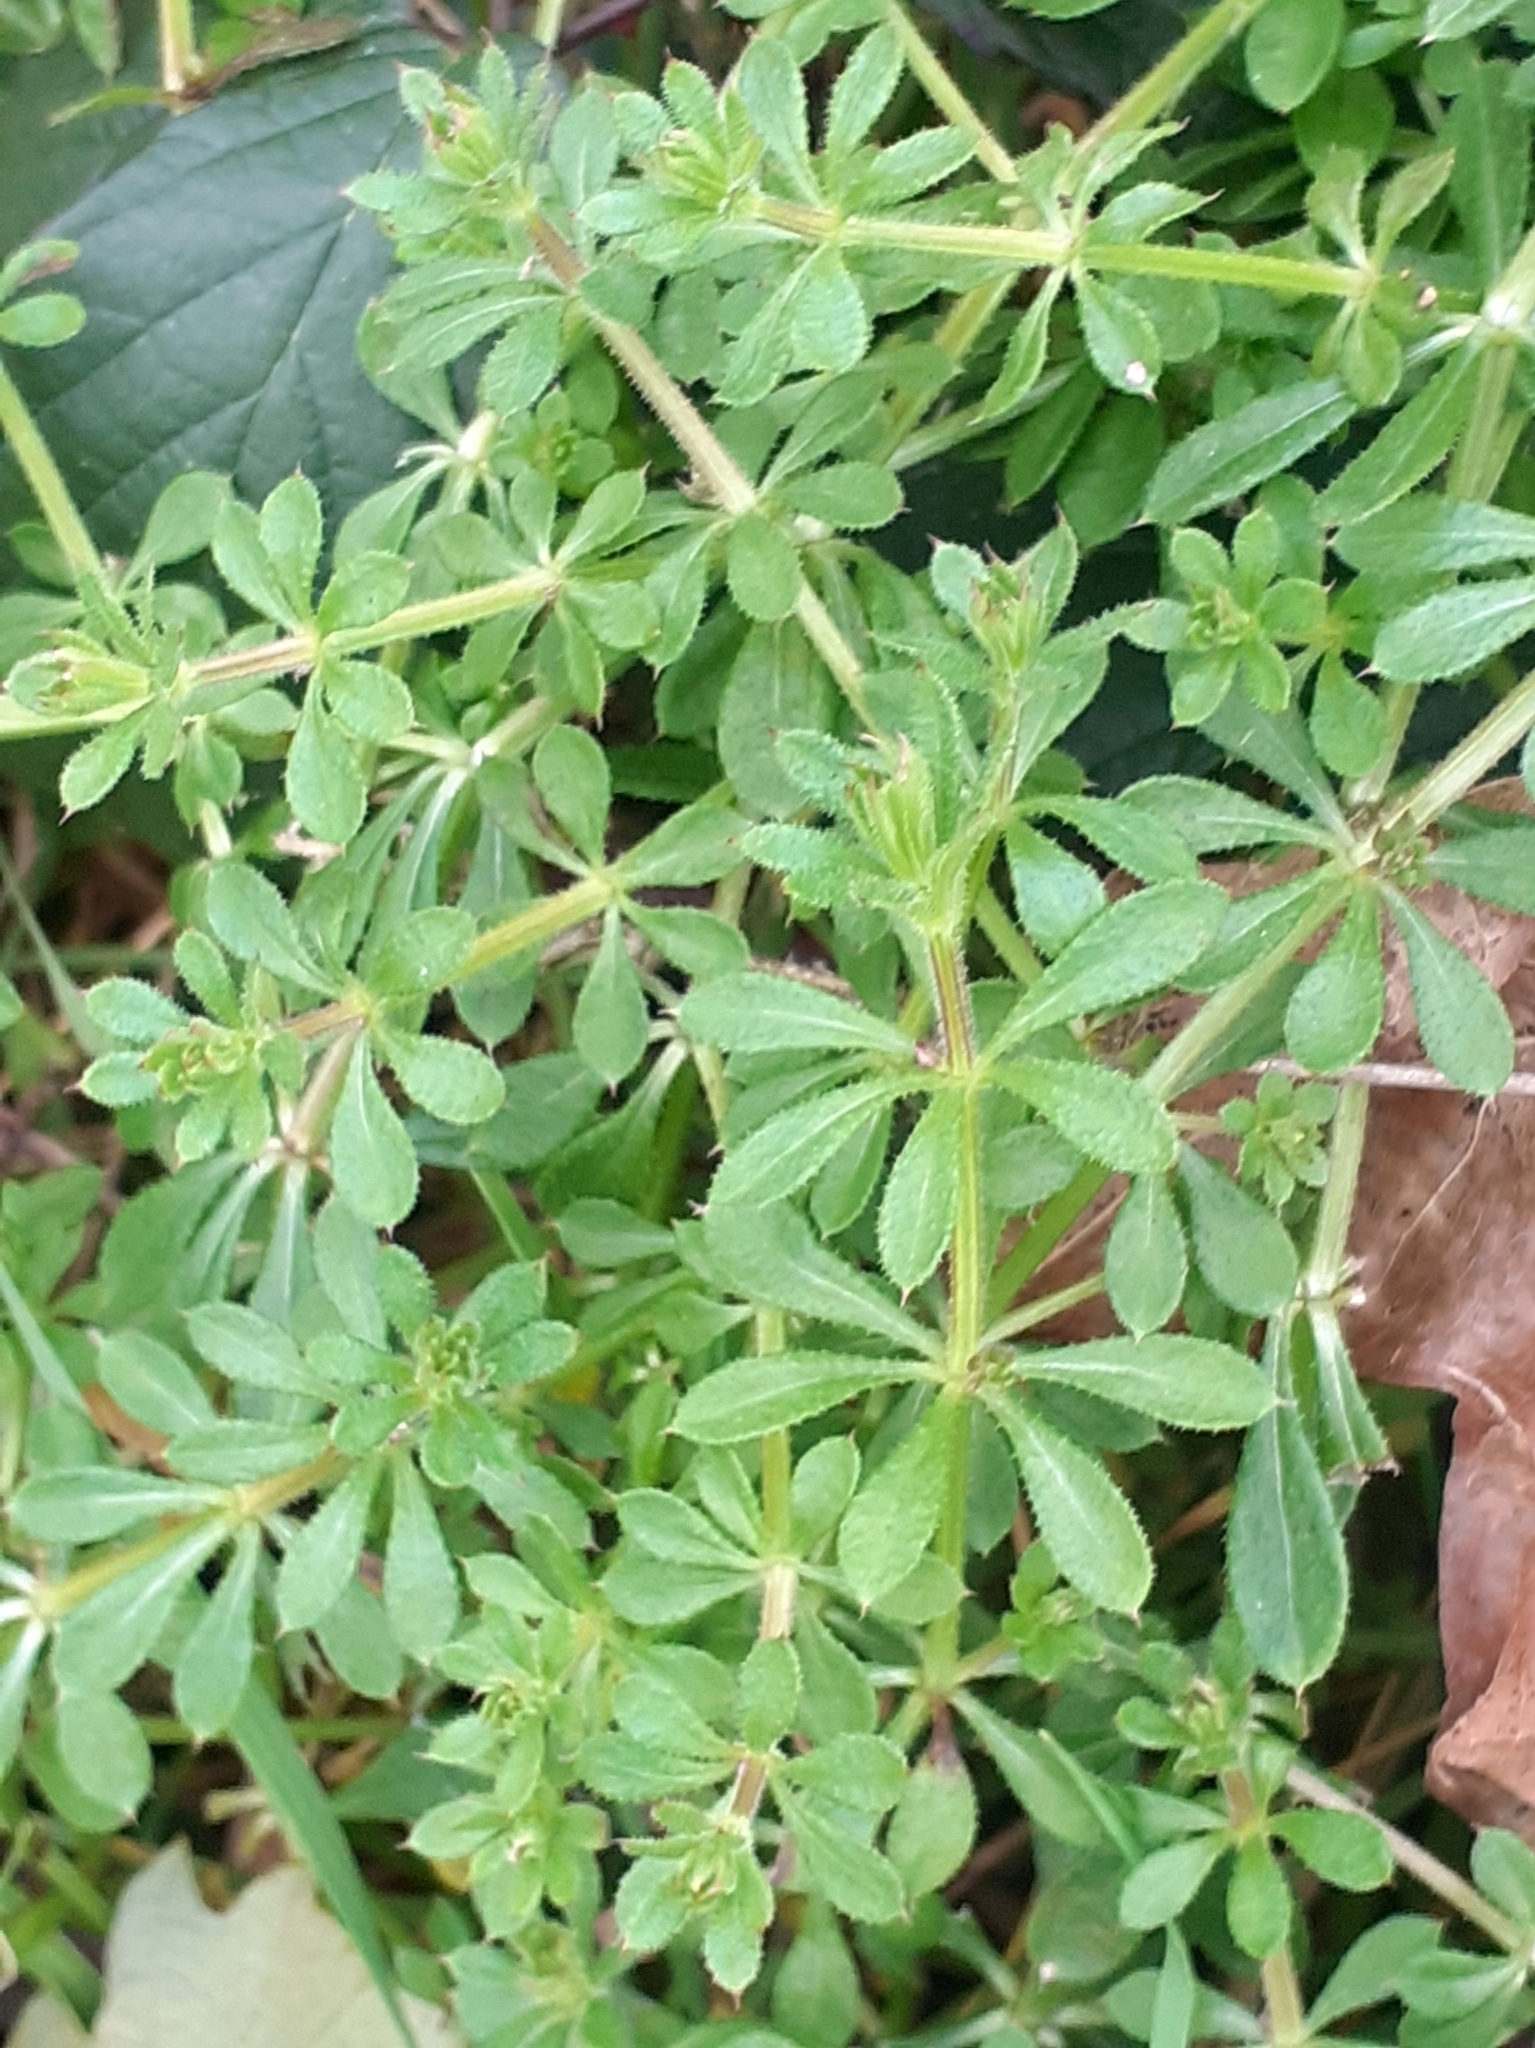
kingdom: Plantae
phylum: Tracheophyta
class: Magnoliopsida
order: Gentianales
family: Rubiaceae
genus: Galium
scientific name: Galium aparine
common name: Cleavers
